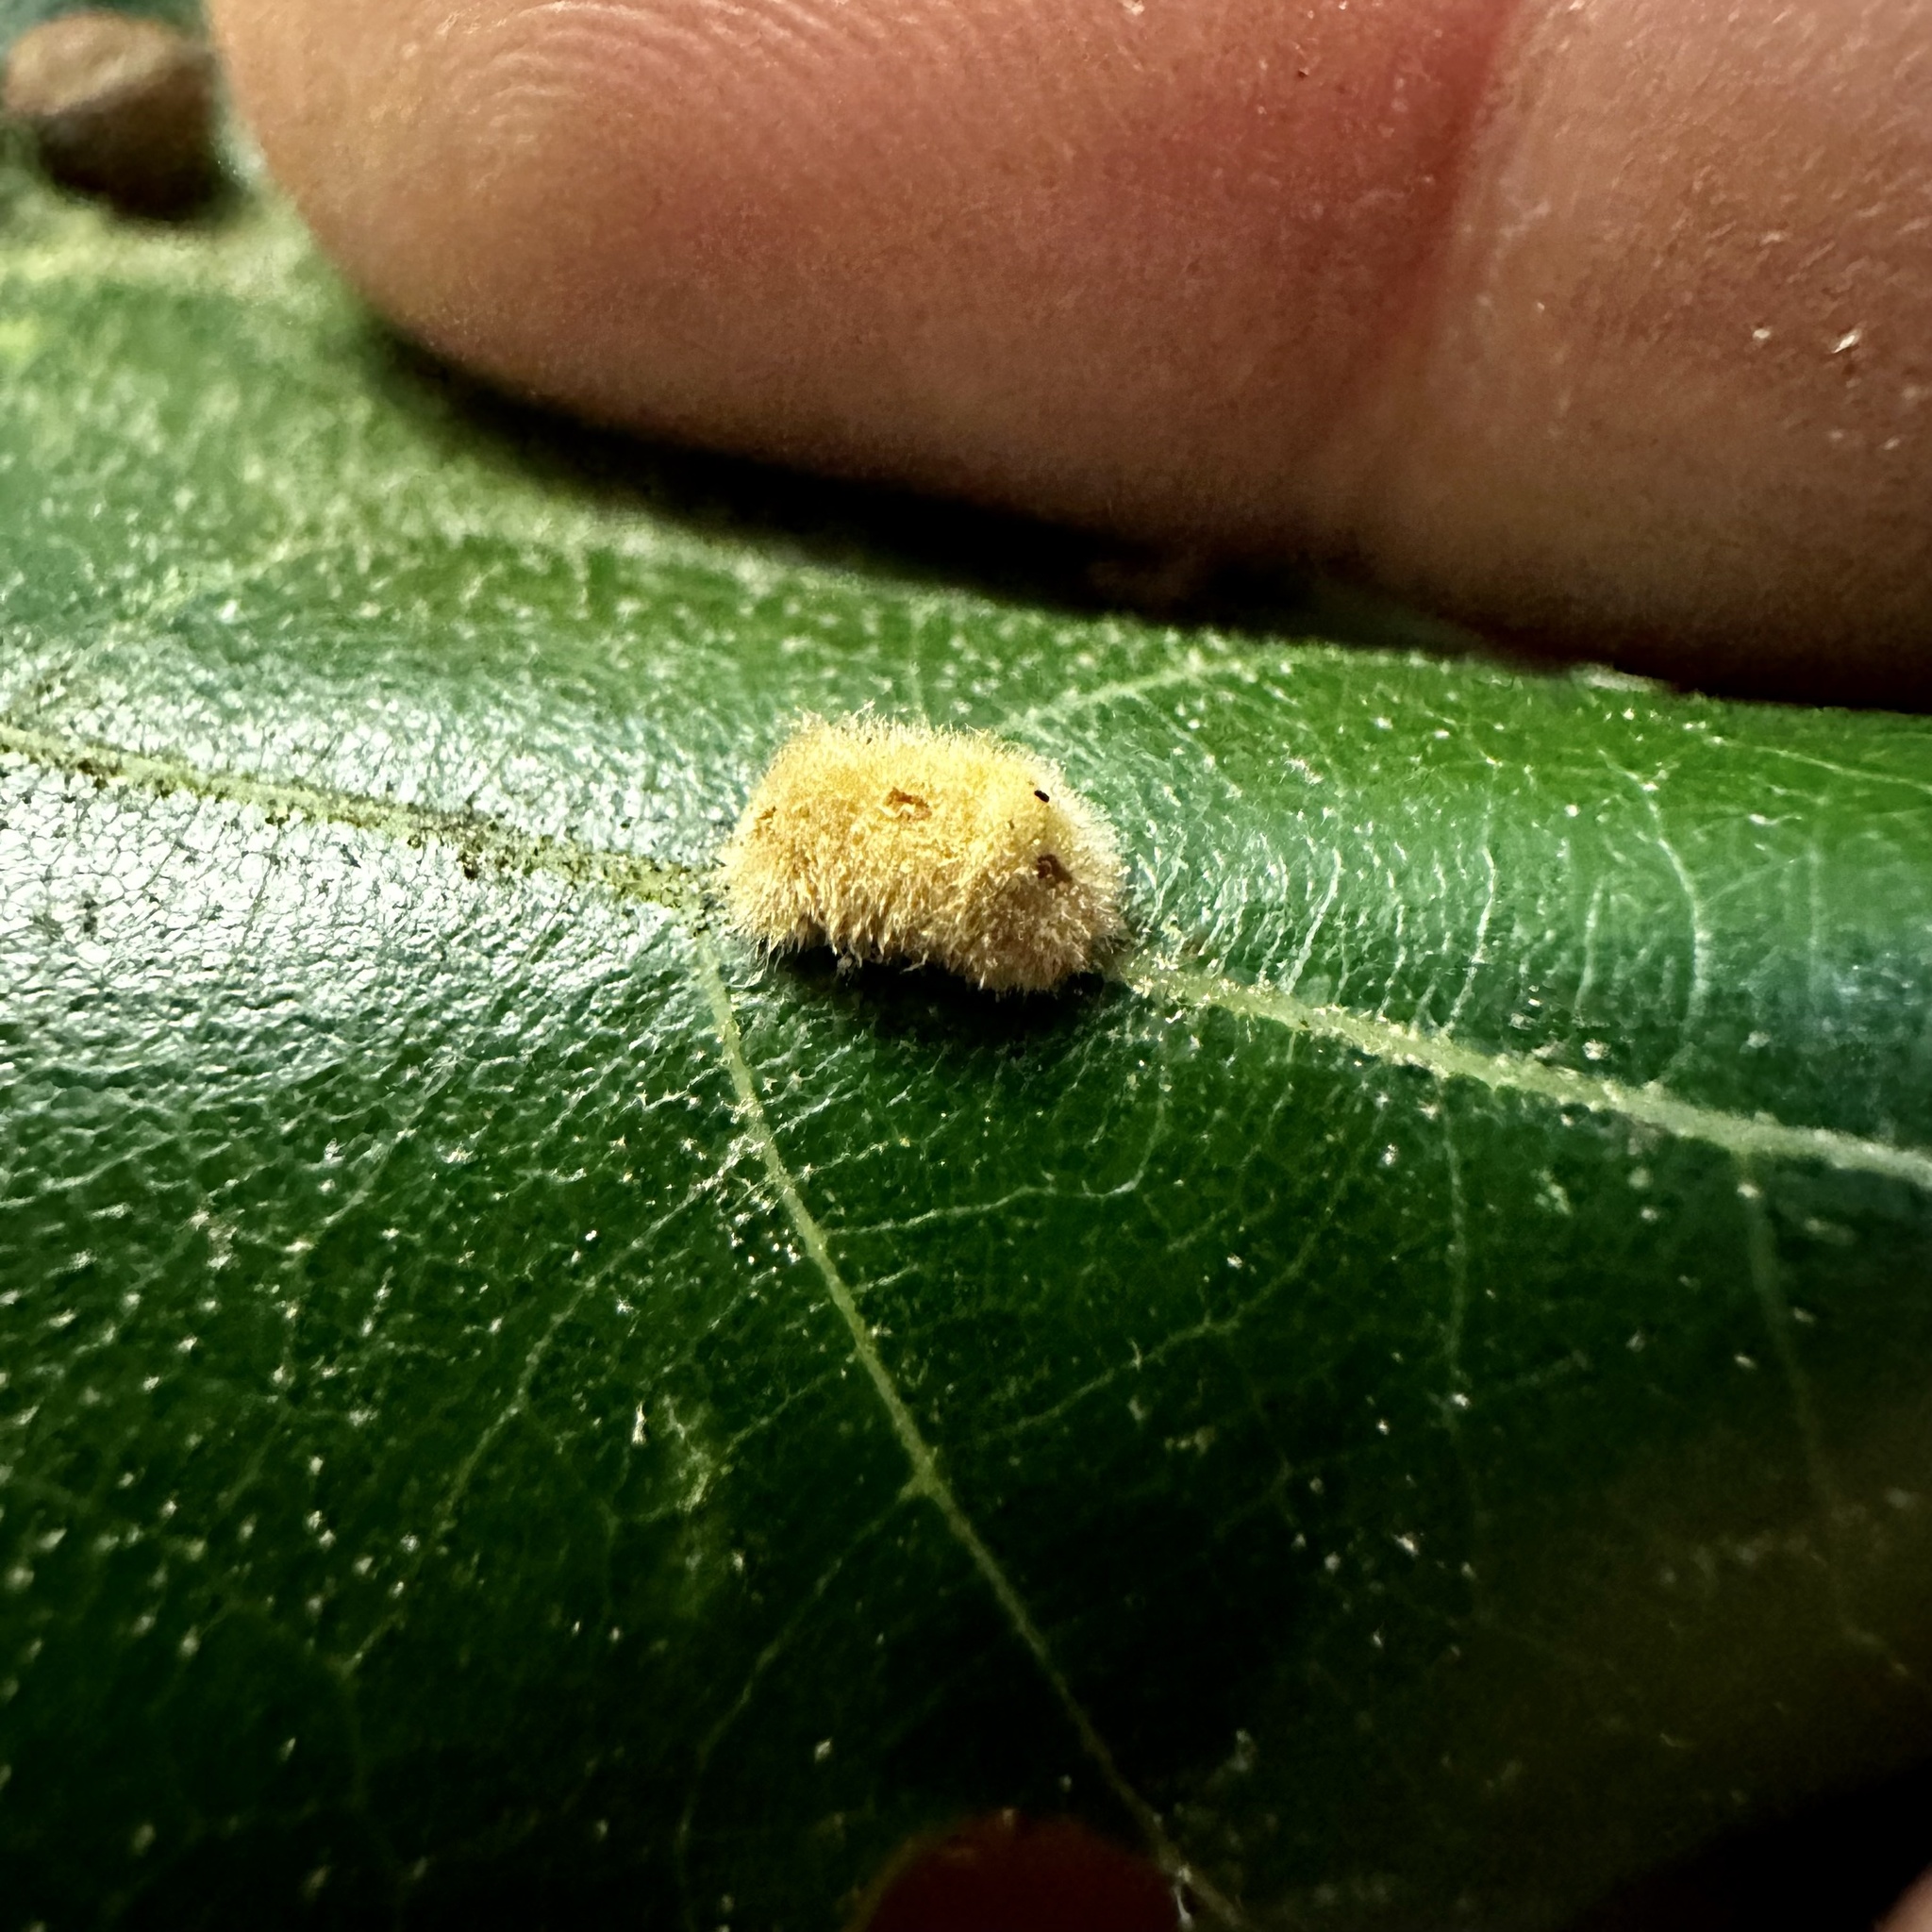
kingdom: Animalia
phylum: Arthropoda
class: Insecta
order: Hymenoptera
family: Cynipidae
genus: Callirhytis
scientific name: Callirhytis
